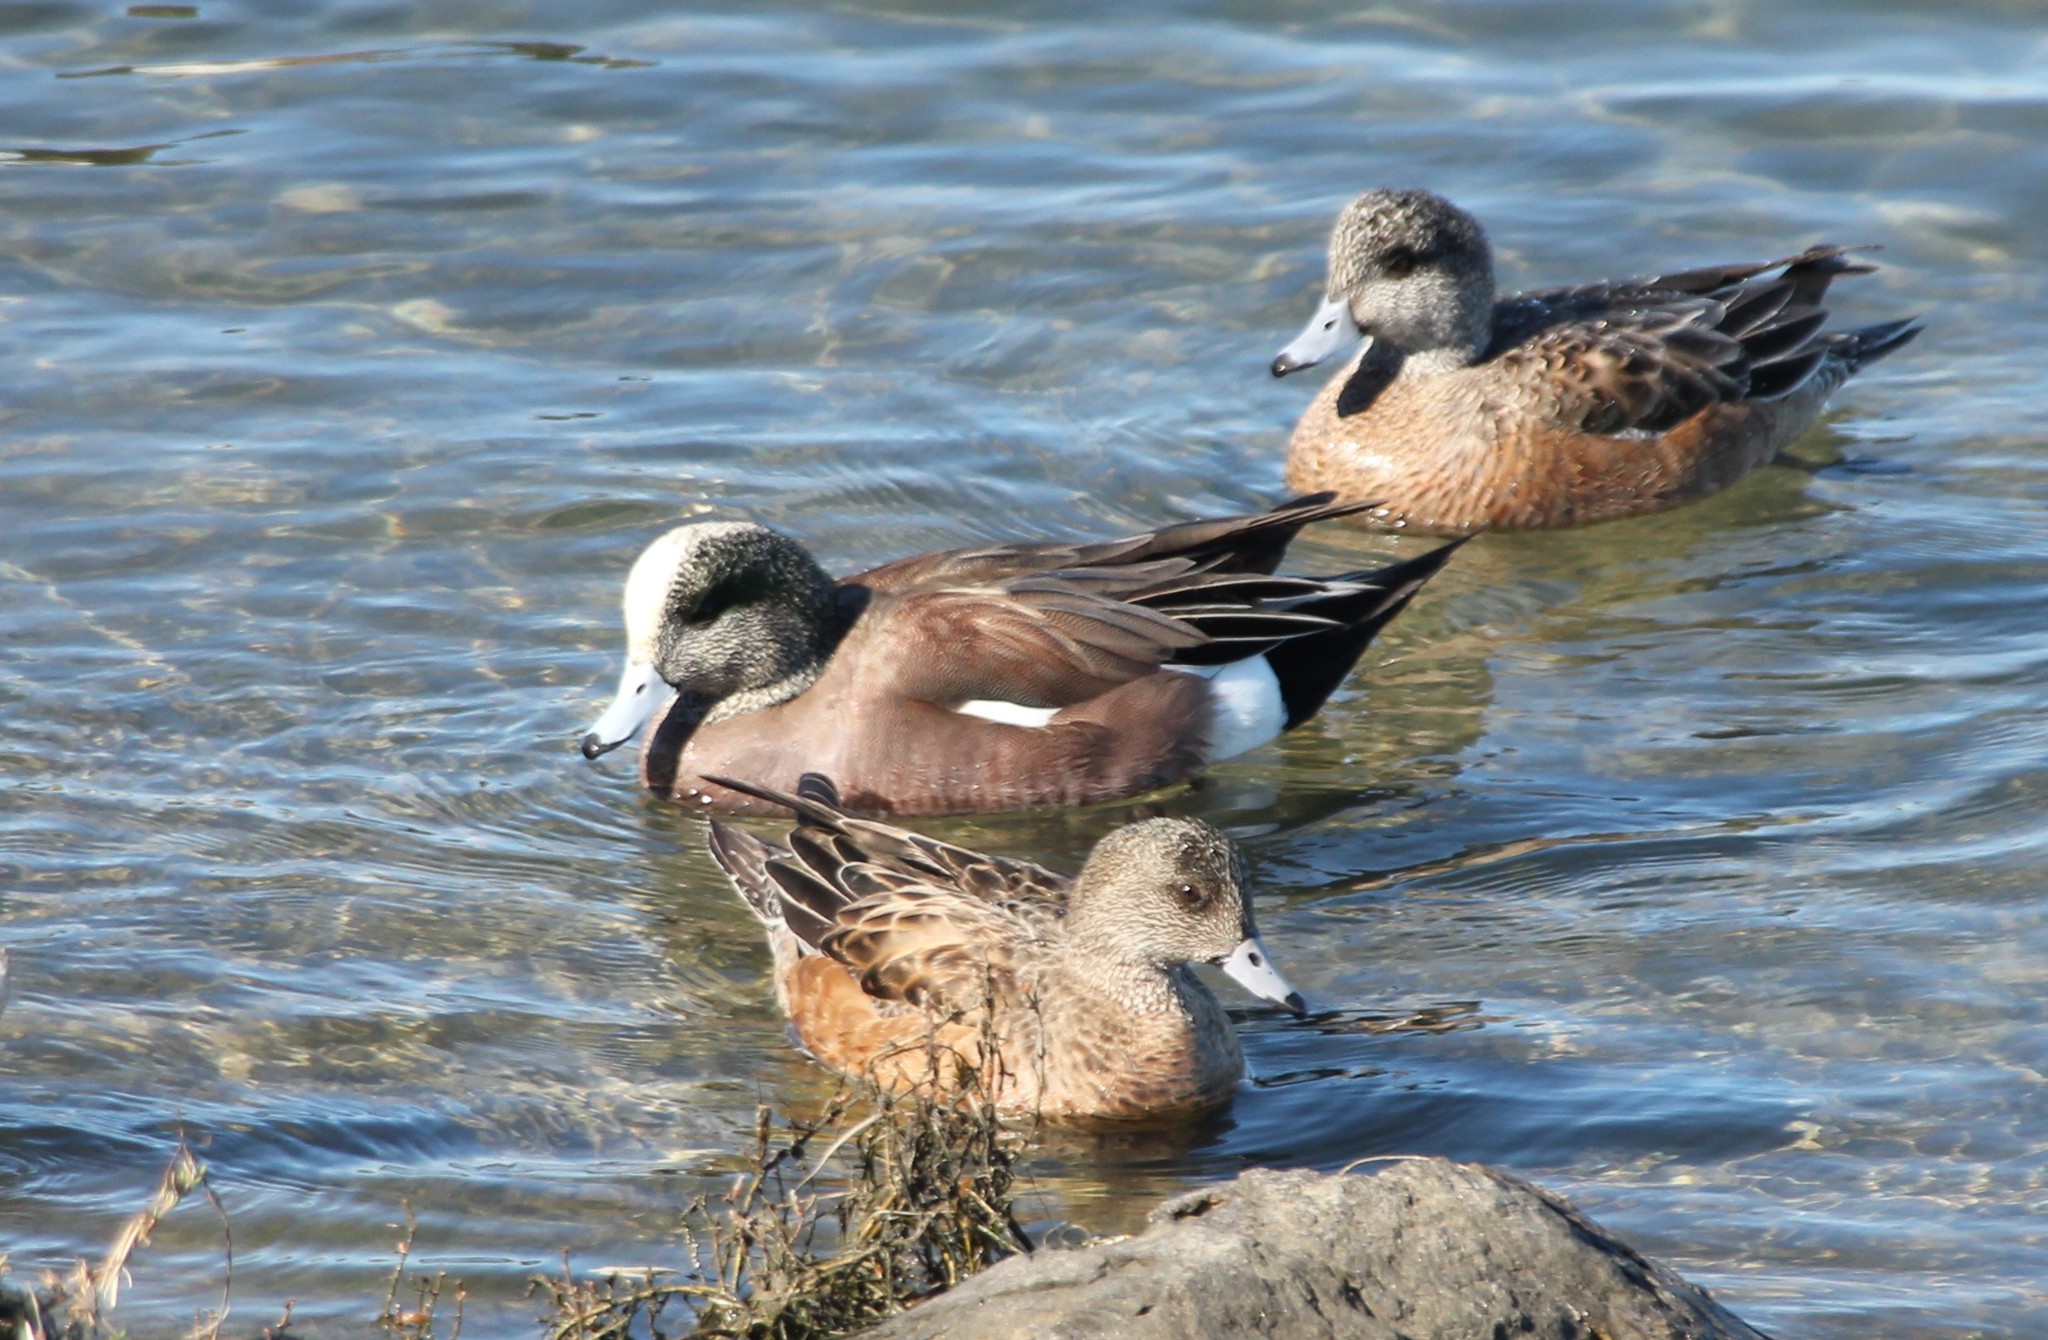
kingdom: Animalia
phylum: Chordata
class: Aves
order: Anseriformes
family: Anatidae
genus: Mareca
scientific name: Mareca americana
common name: American wigeon
